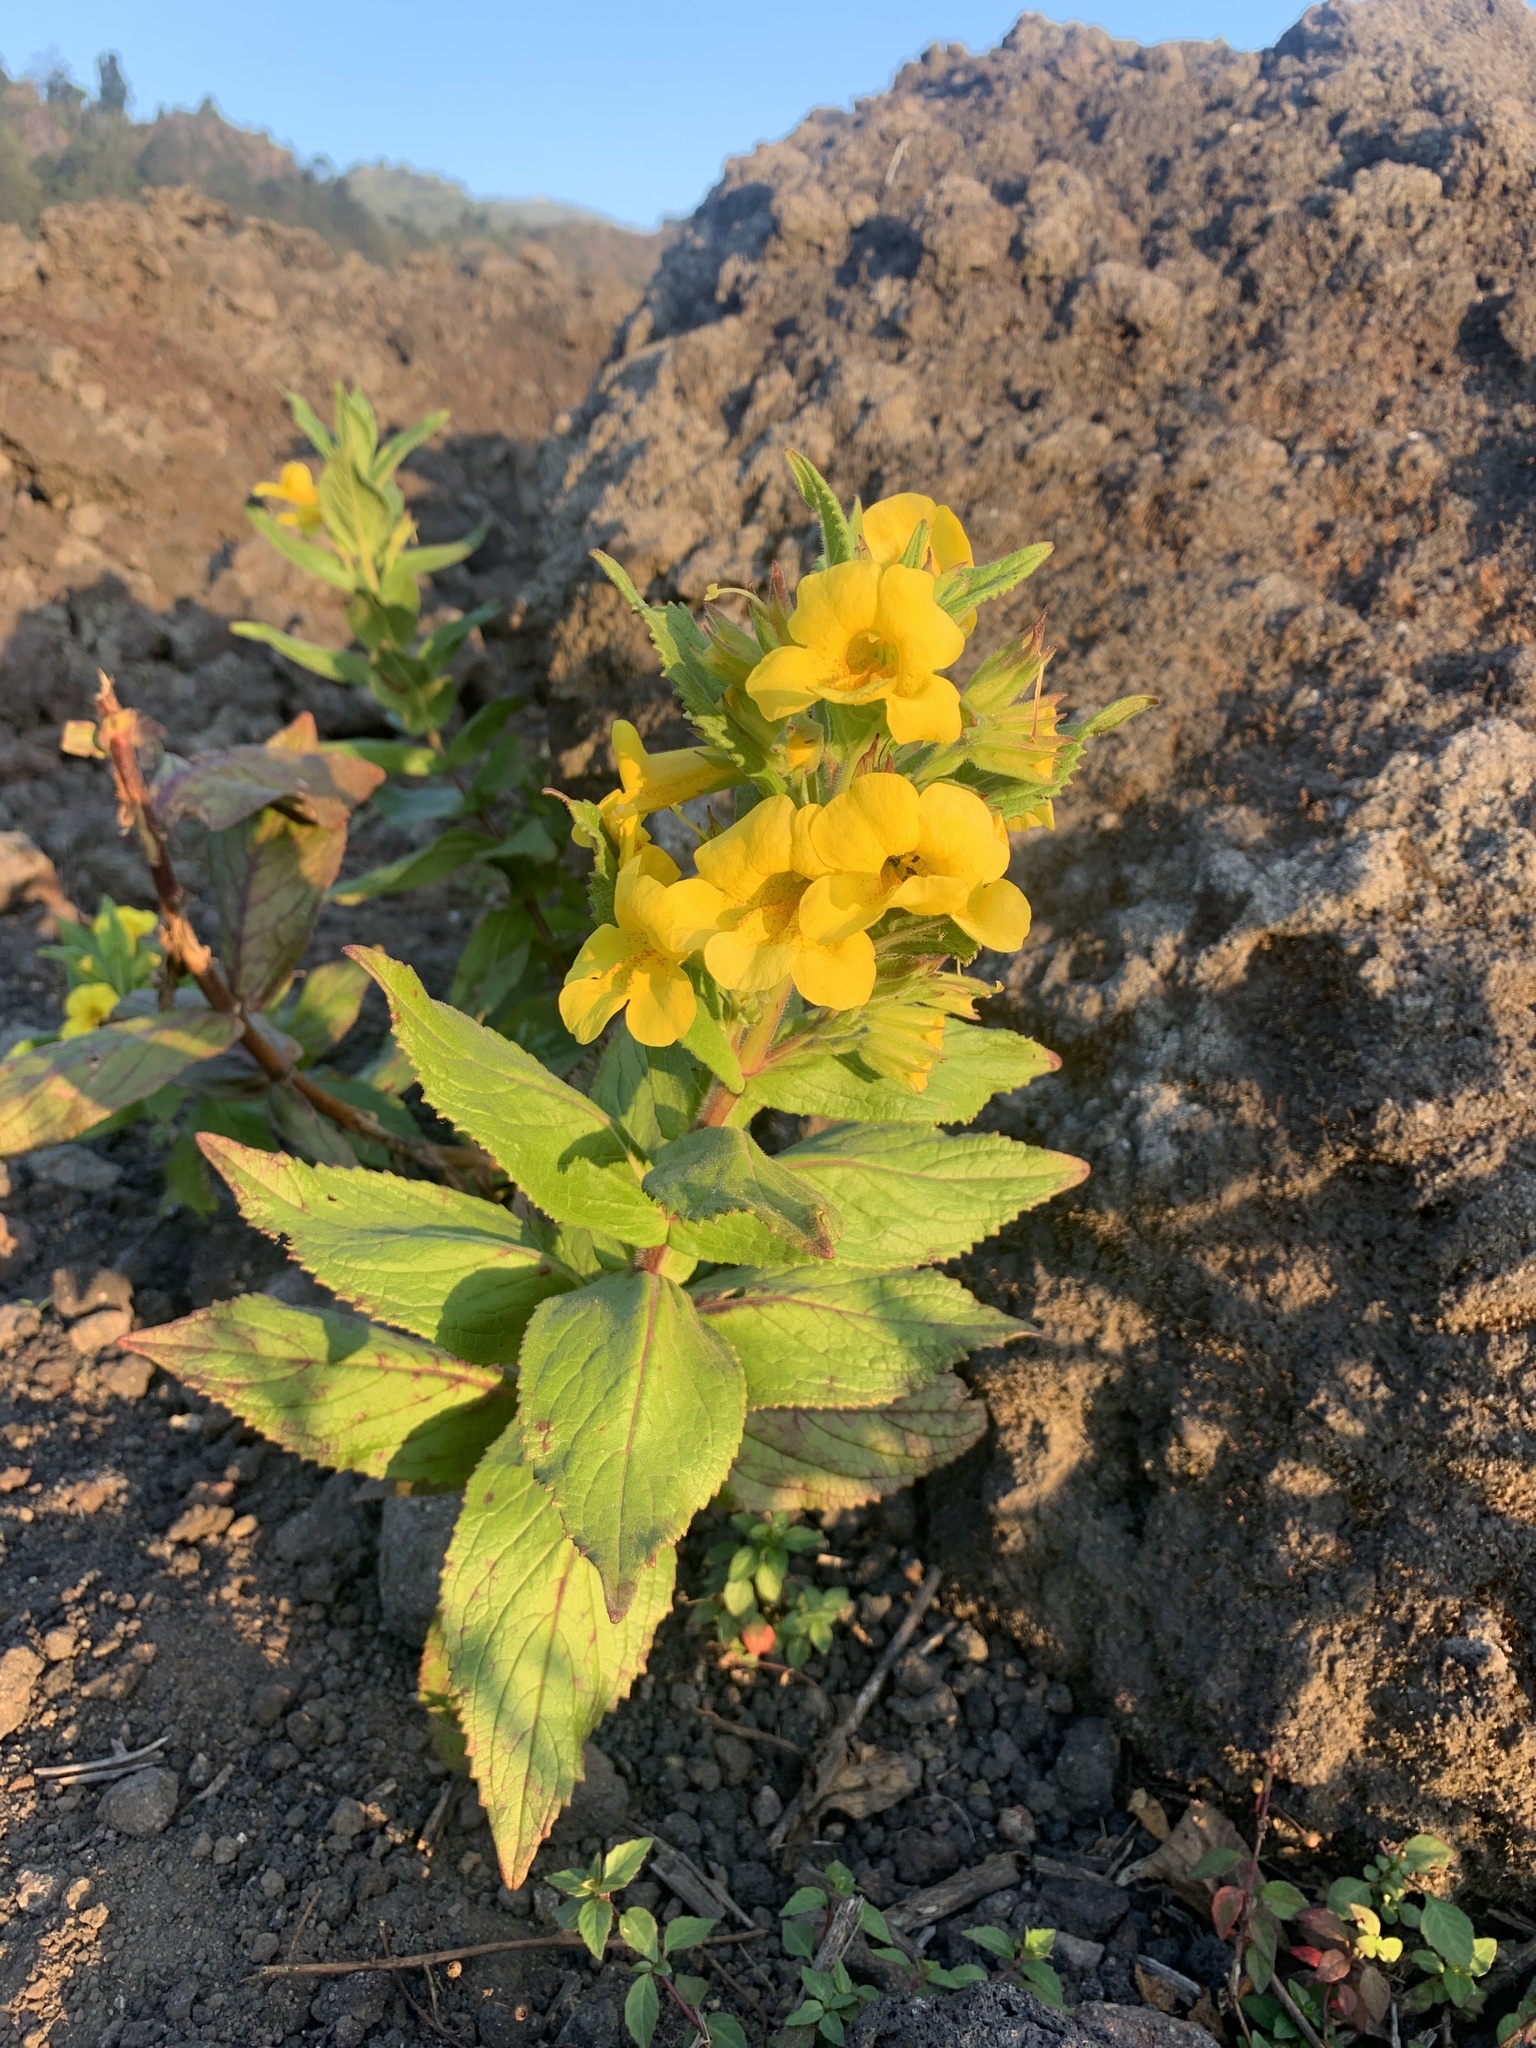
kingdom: Plantae
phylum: Tracheophyta
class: Magnoliopsida
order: Lamiales
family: Phrymaceae
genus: Hemichaena
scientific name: Hemichaena fruticosa
